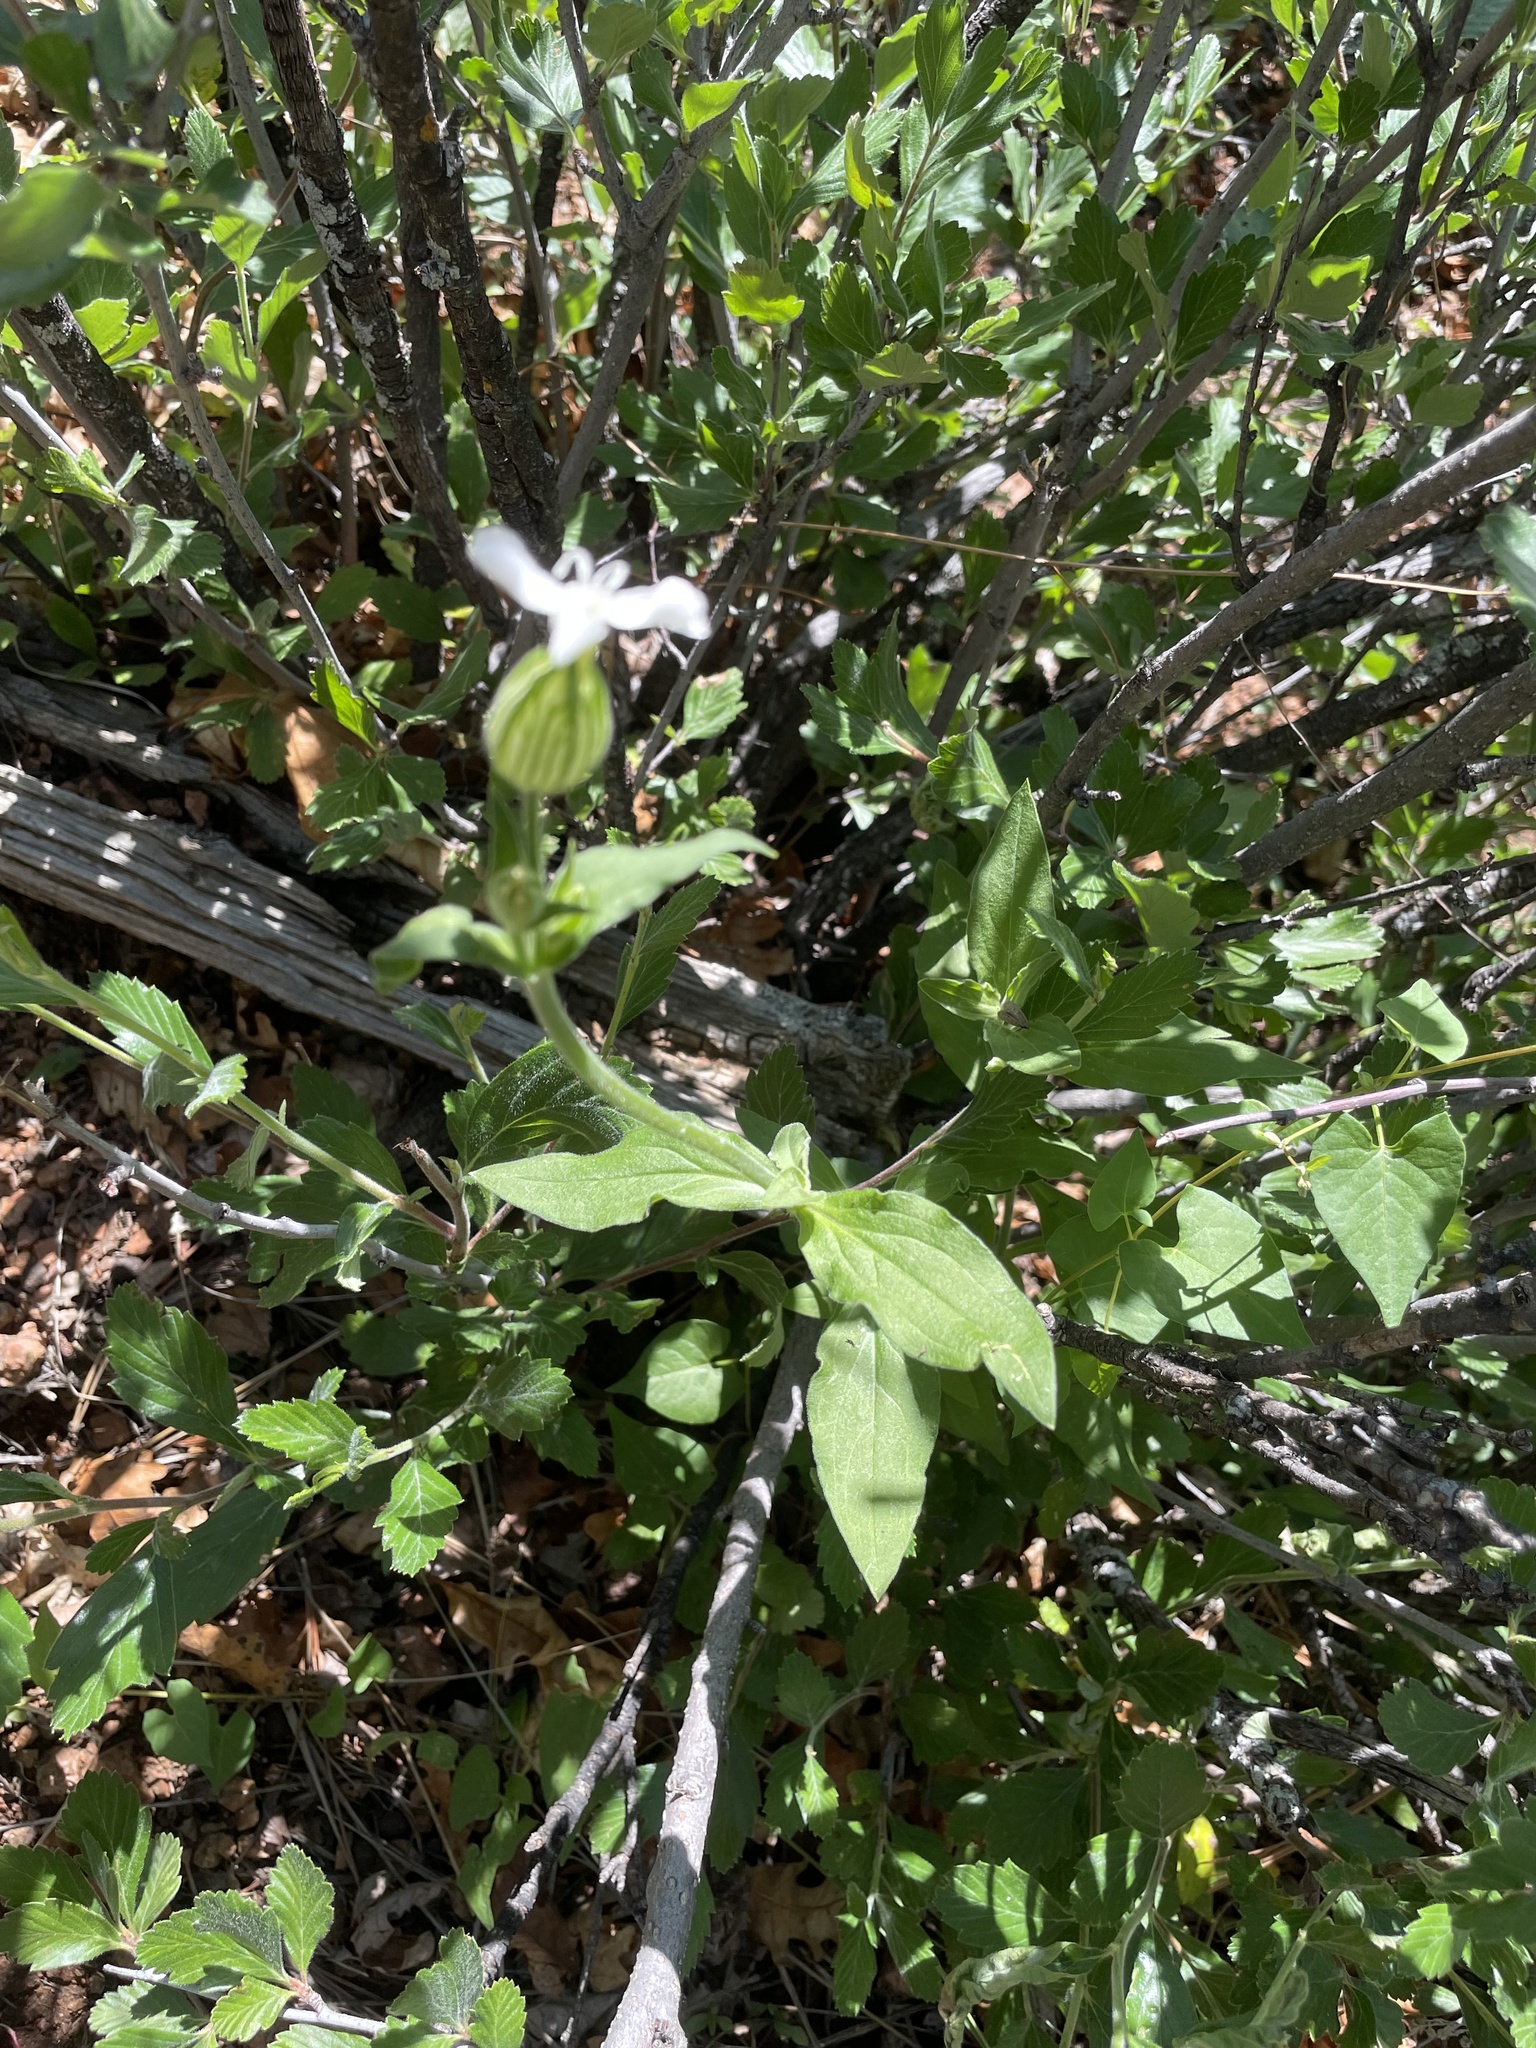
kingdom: Plantae
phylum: Tracheophyta
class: Magnoliopsida
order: Caryophyllales
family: Caryophyllaceae
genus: Silene
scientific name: Silene latifolia
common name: White campion
